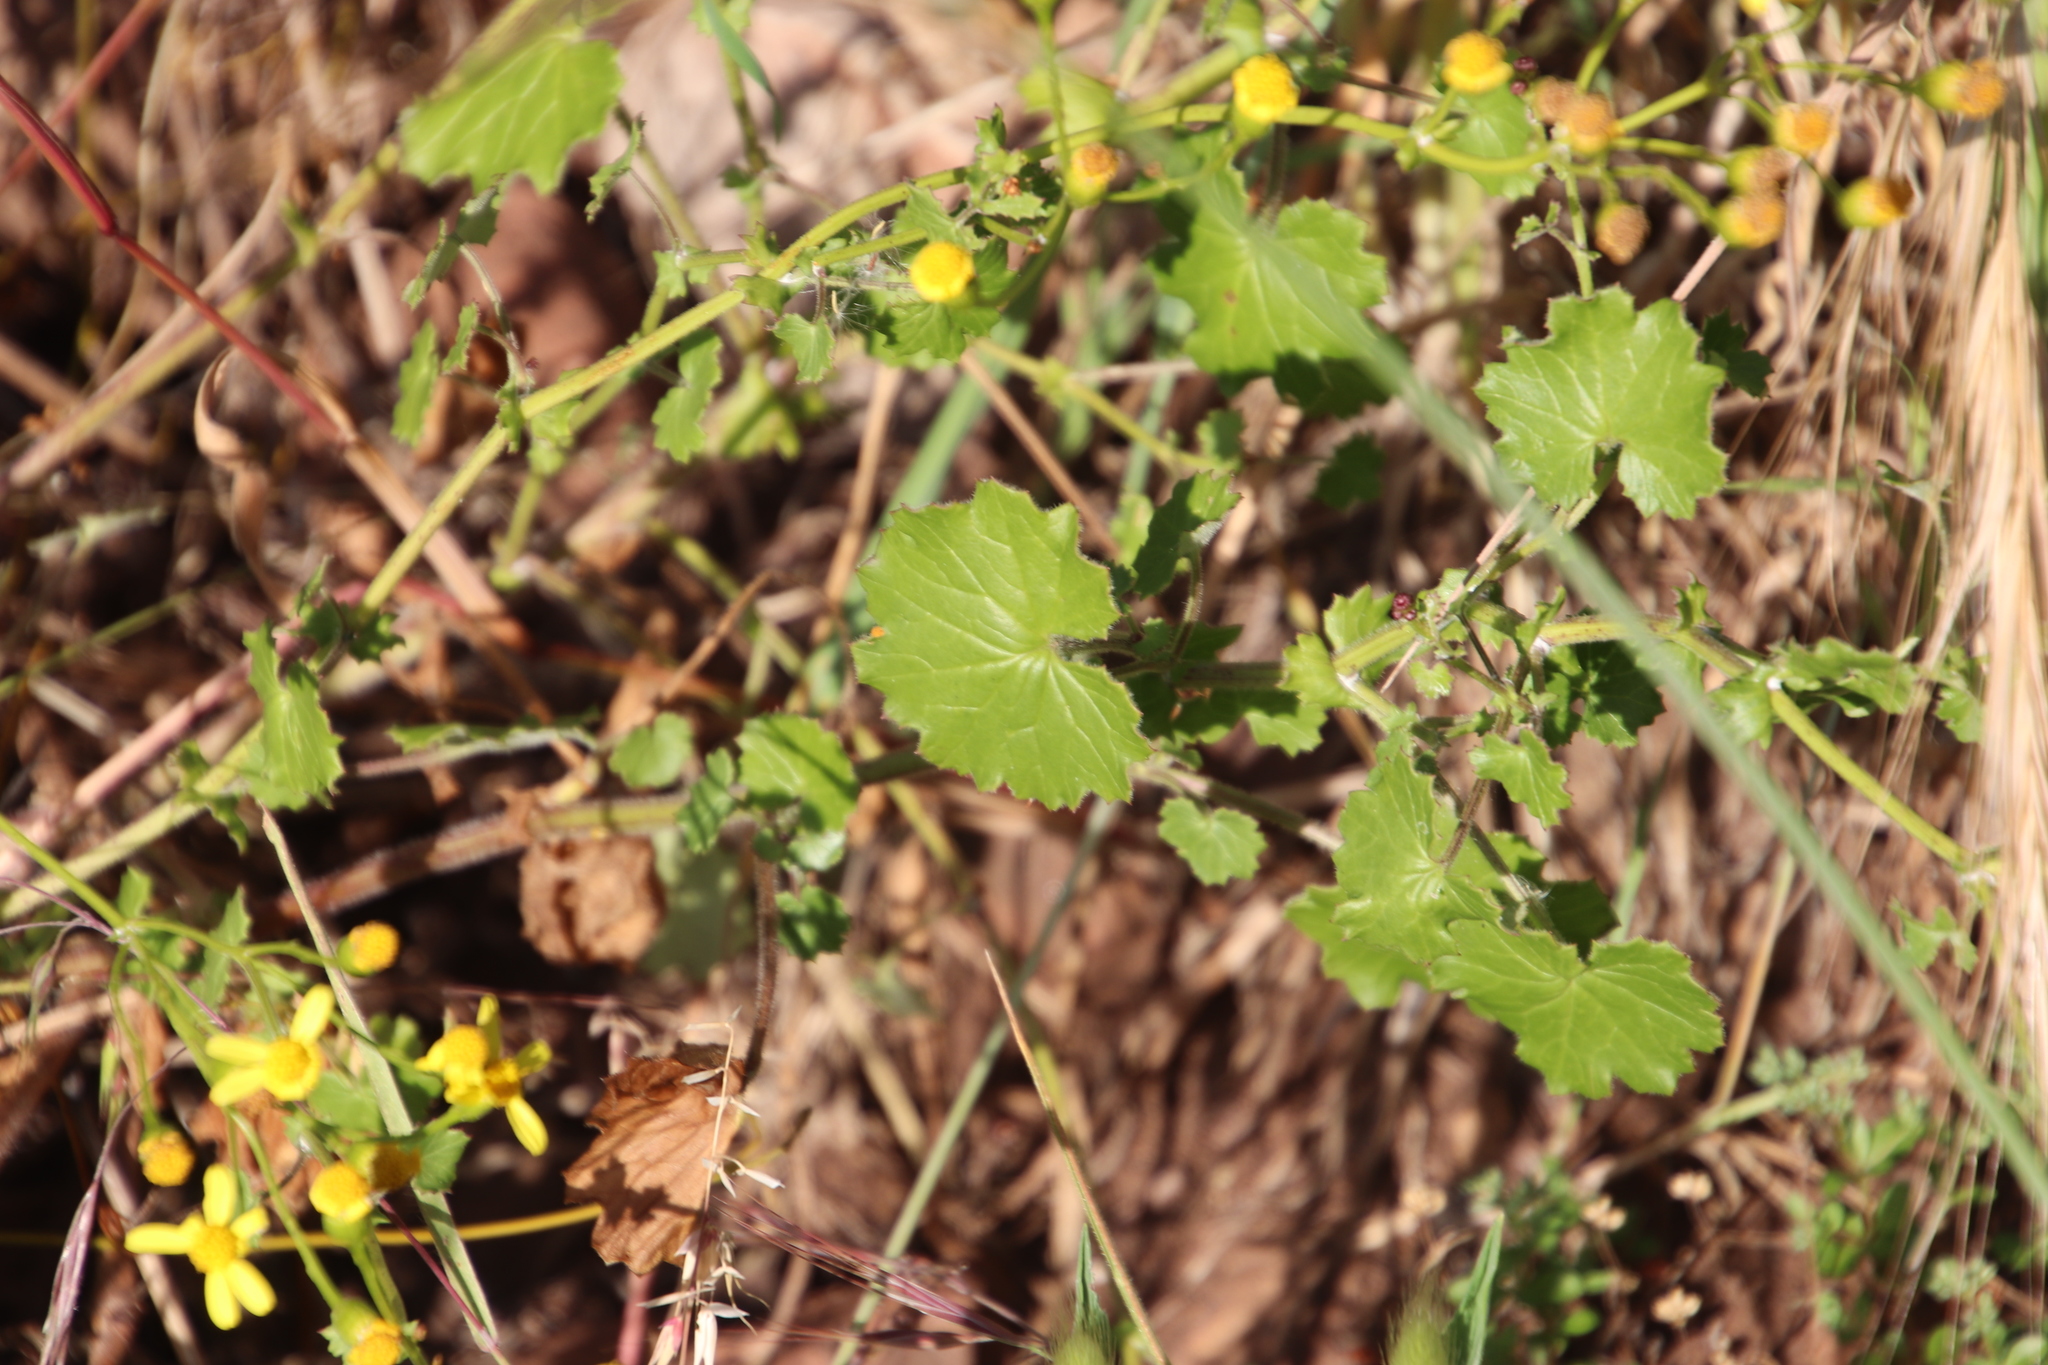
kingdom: Plantae
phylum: Tracheophyta
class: Magnoliopsida
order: Asterales
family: Asteraceae
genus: Cineraria
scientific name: Cineraria geifolia
